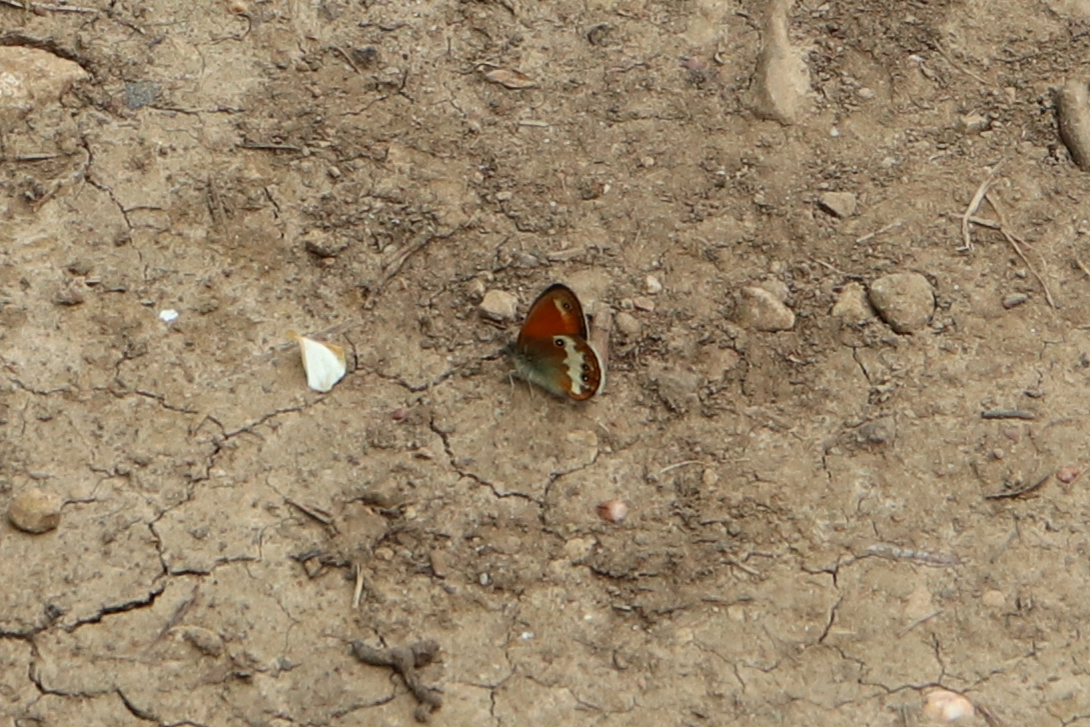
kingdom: Animalia
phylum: Arthropoda
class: Insecta
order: Lepidoptera
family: Nymphalidae
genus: Coenonympha
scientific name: Coenonympha arcania
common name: Pearly heath
